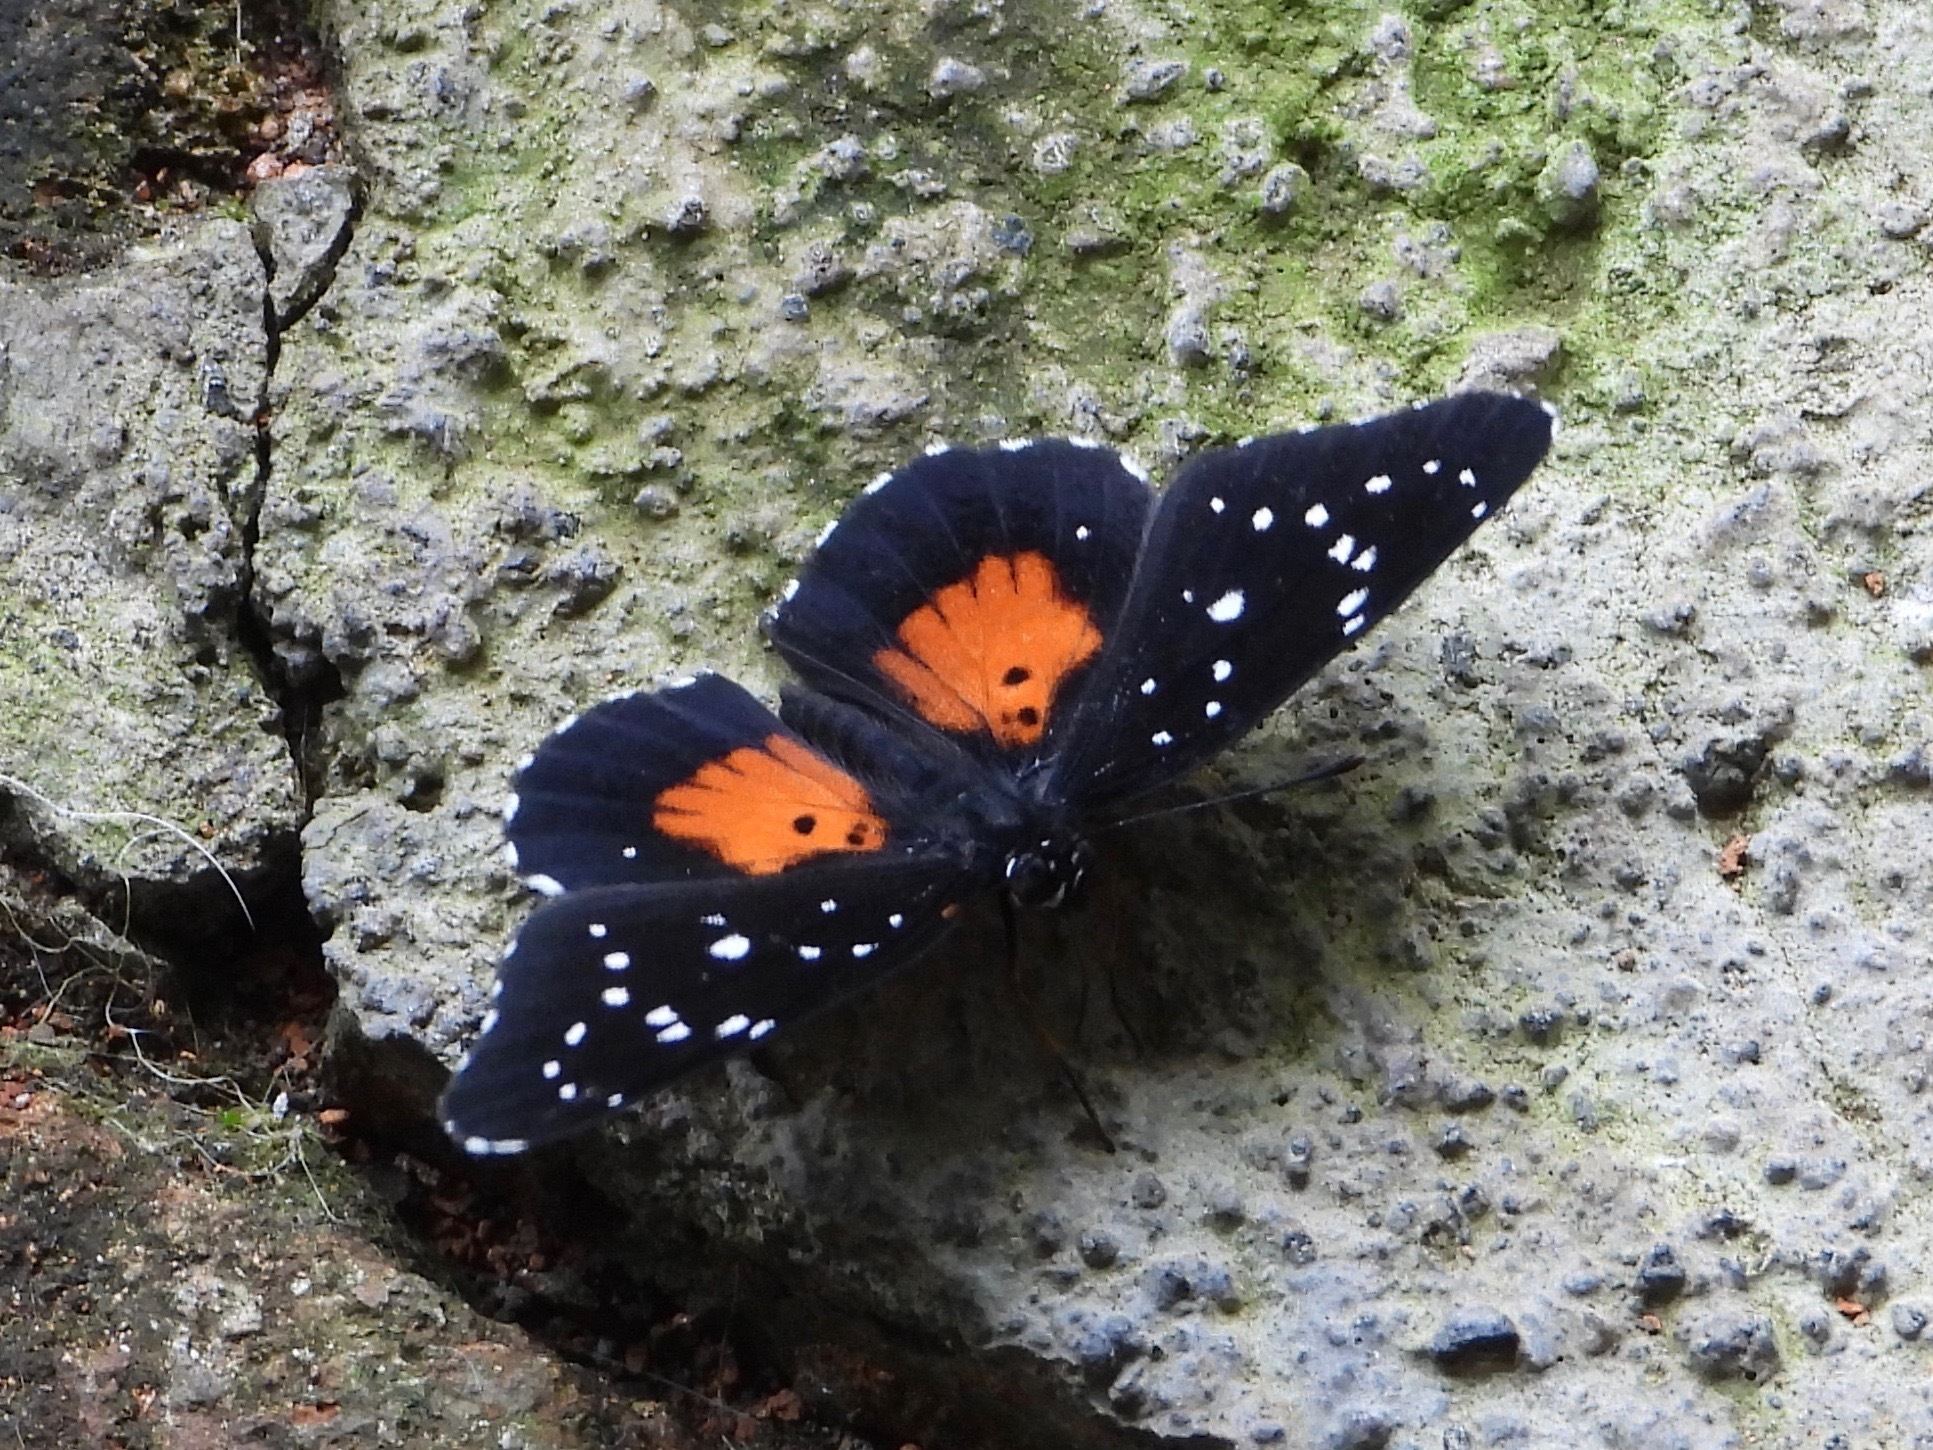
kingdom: Animalia
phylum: Arthropoda
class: Insecta
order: Lepidoptera
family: Nymphalidae
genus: Chlosyne
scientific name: Chlosyne janais
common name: Crimson patch
